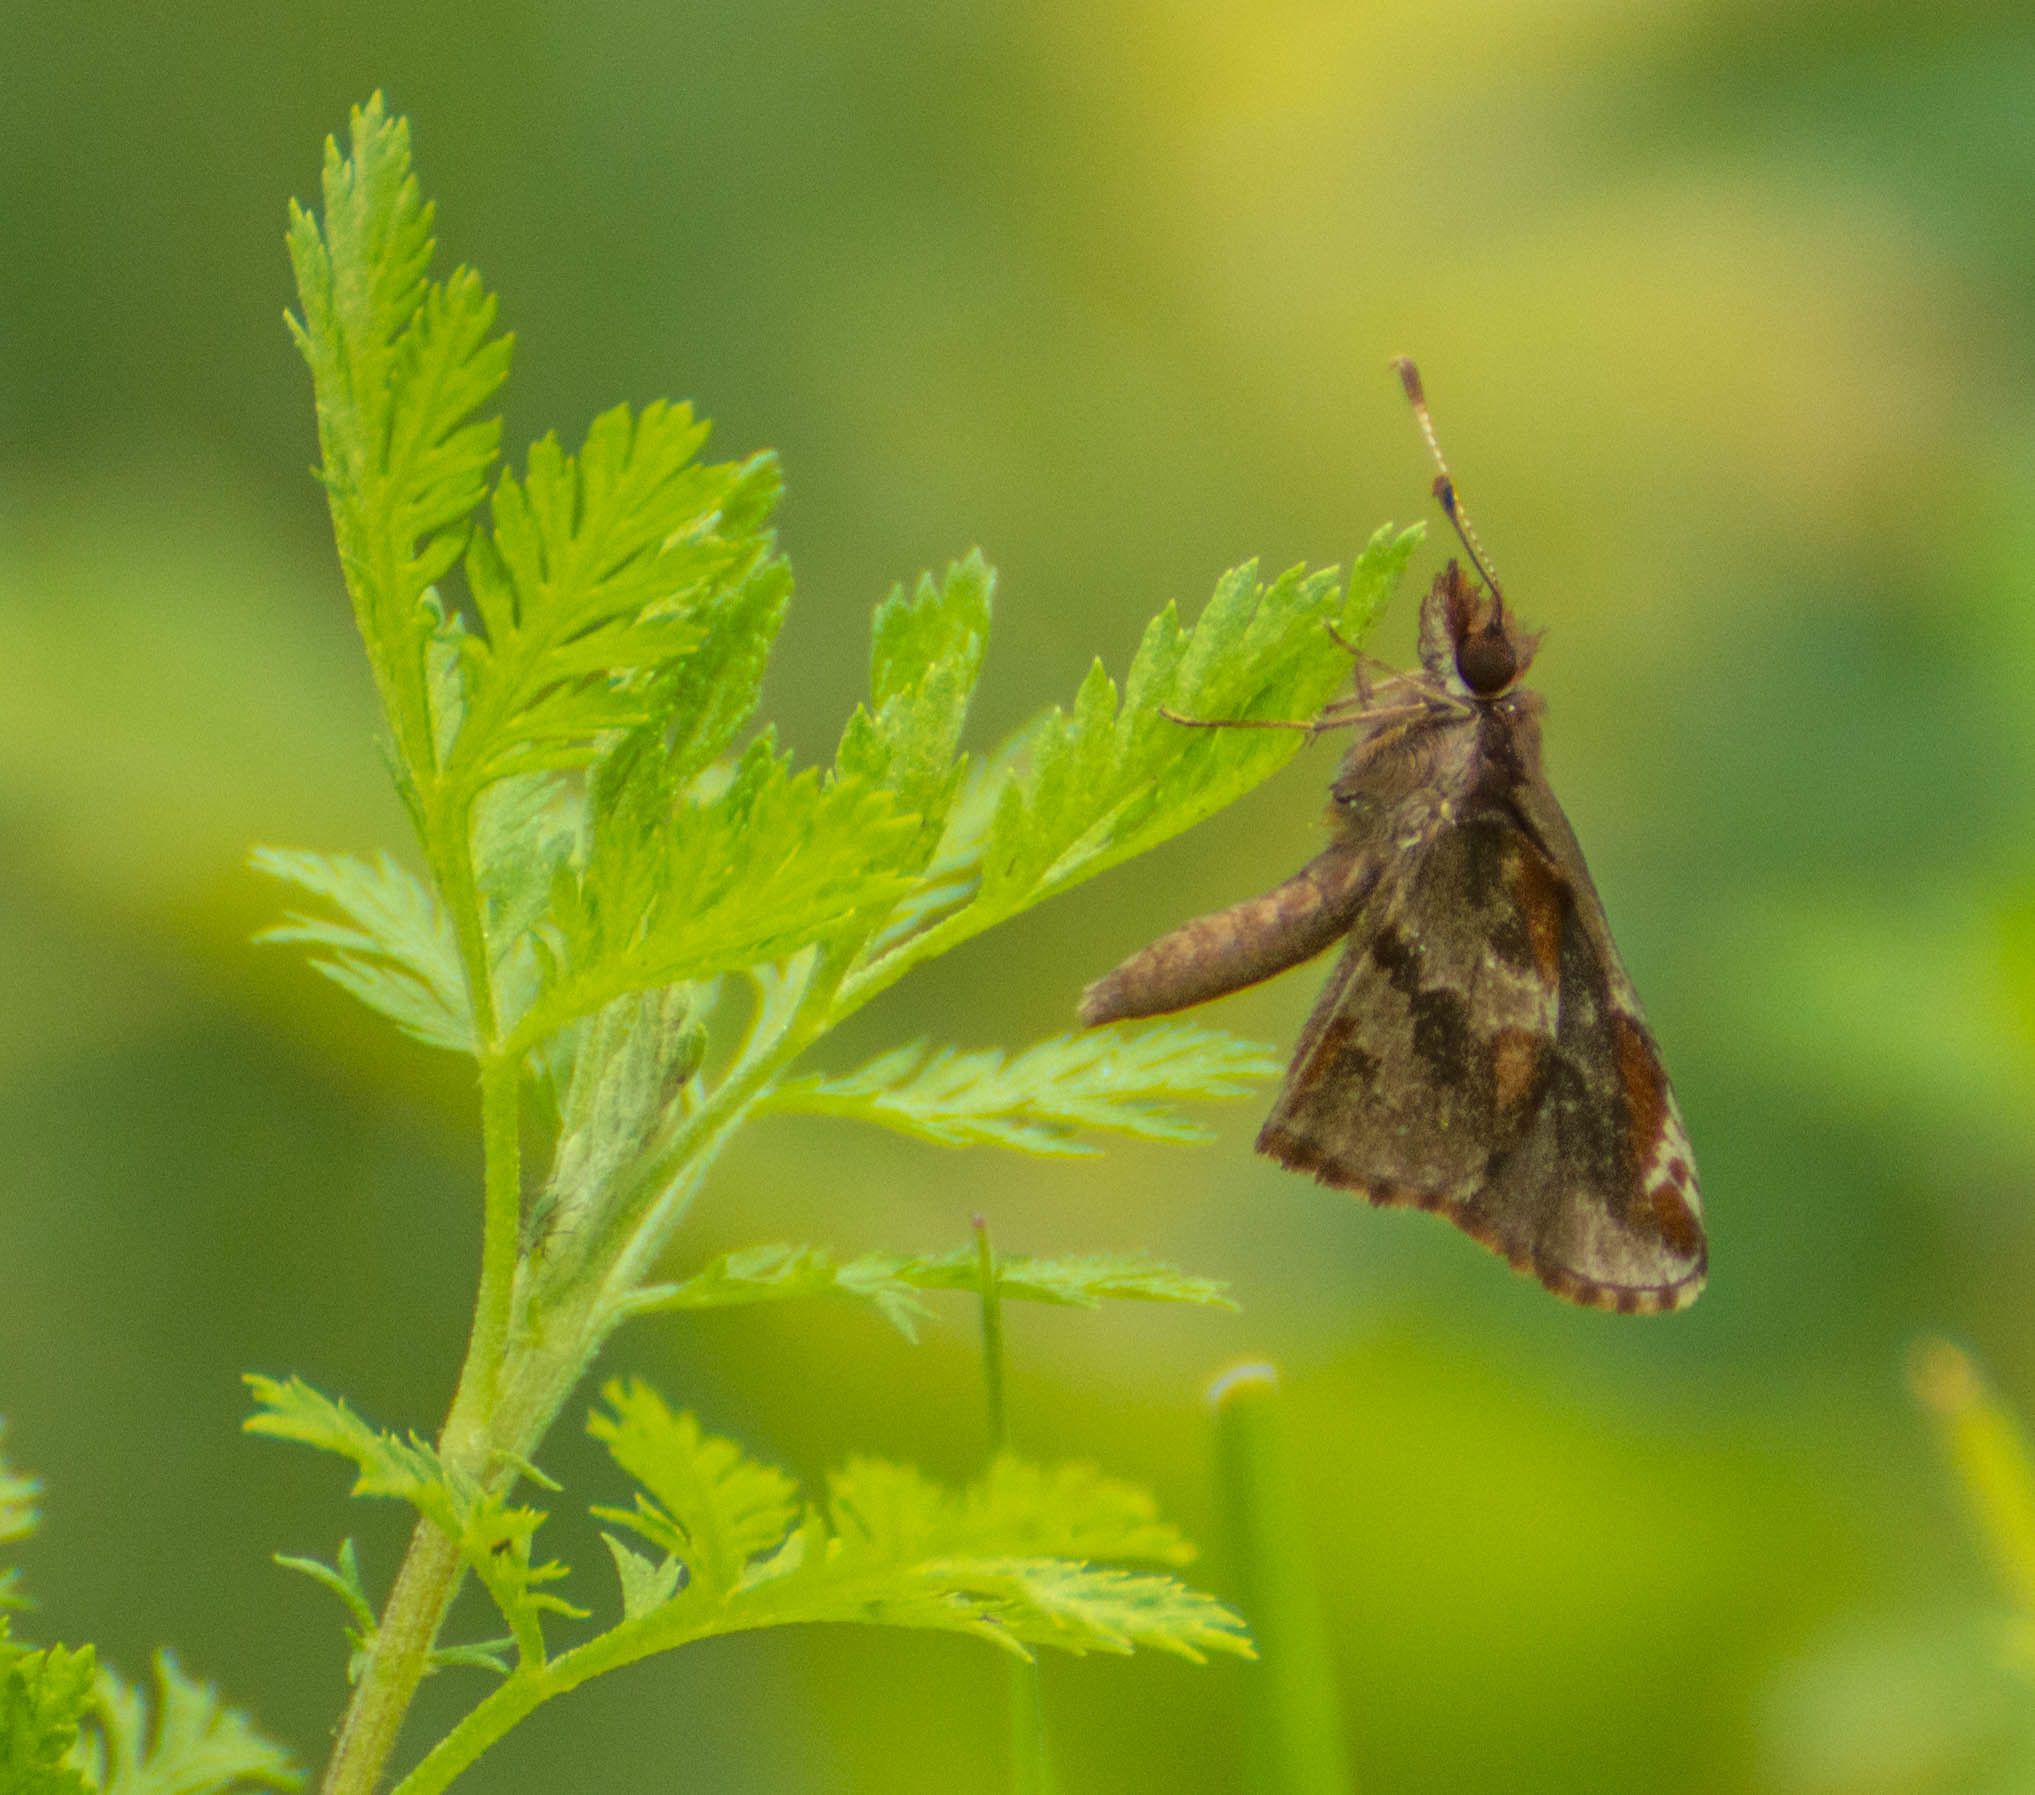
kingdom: Animalia
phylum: Arthropoda
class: Insecta
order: Lepidoptera
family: Hesperiidae
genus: Monca
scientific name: Monca telata
